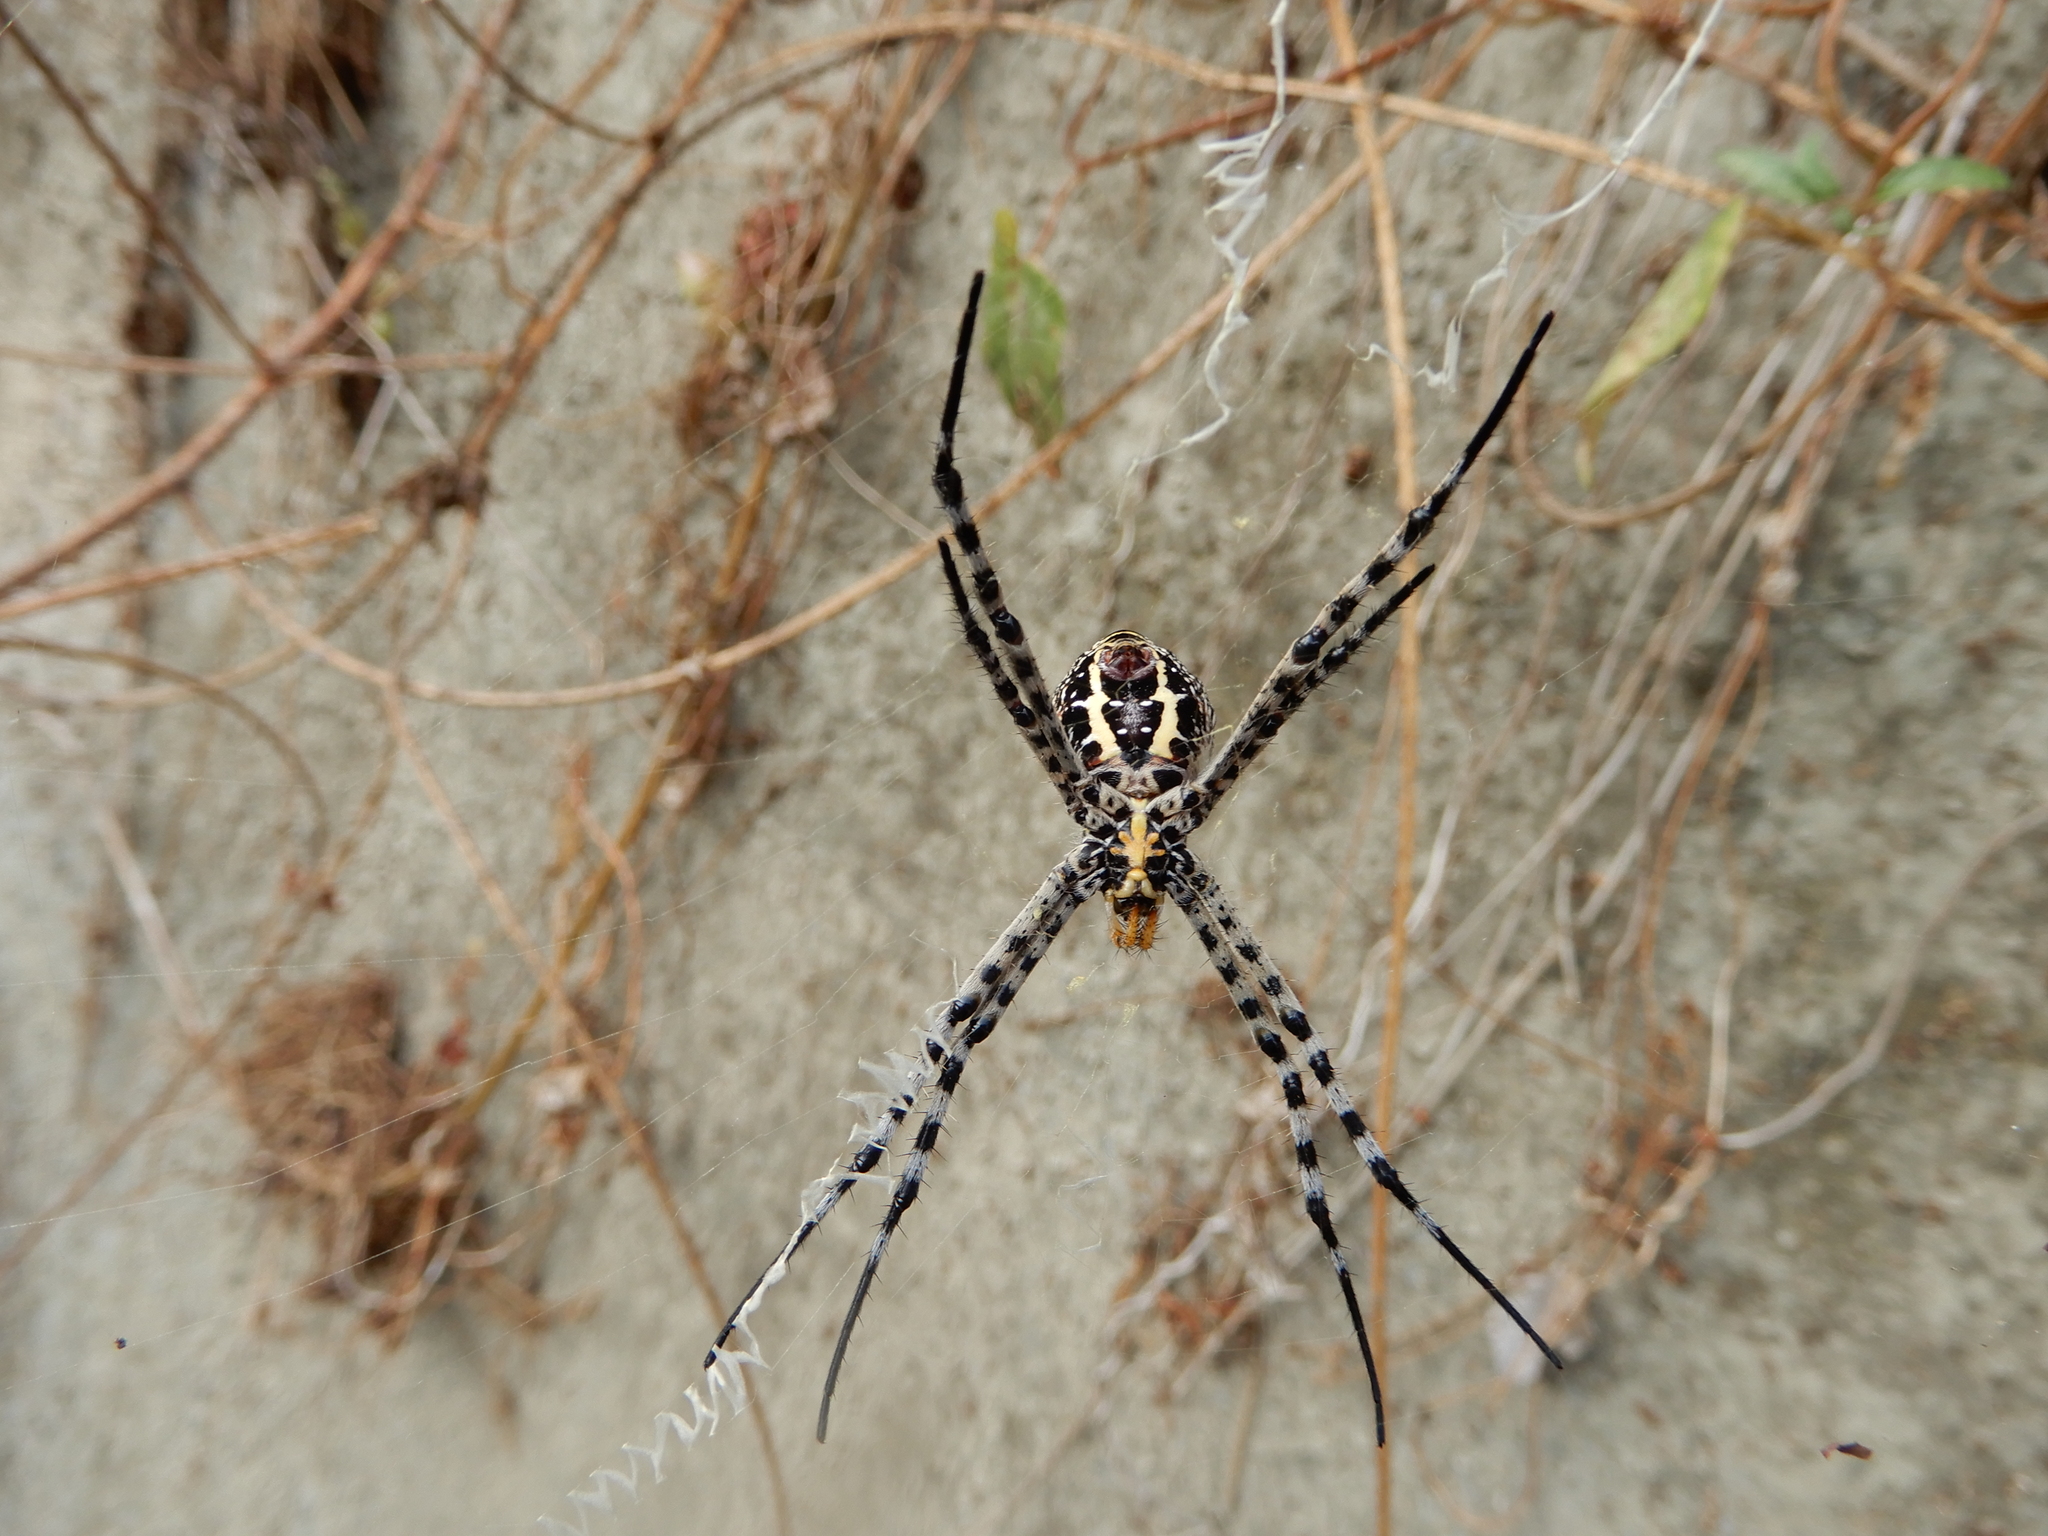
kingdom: Animalia
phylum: Arthropoda
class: Arachnida
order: Araneae
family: Araneidae
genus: Argiope
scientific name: Argiope aemula
